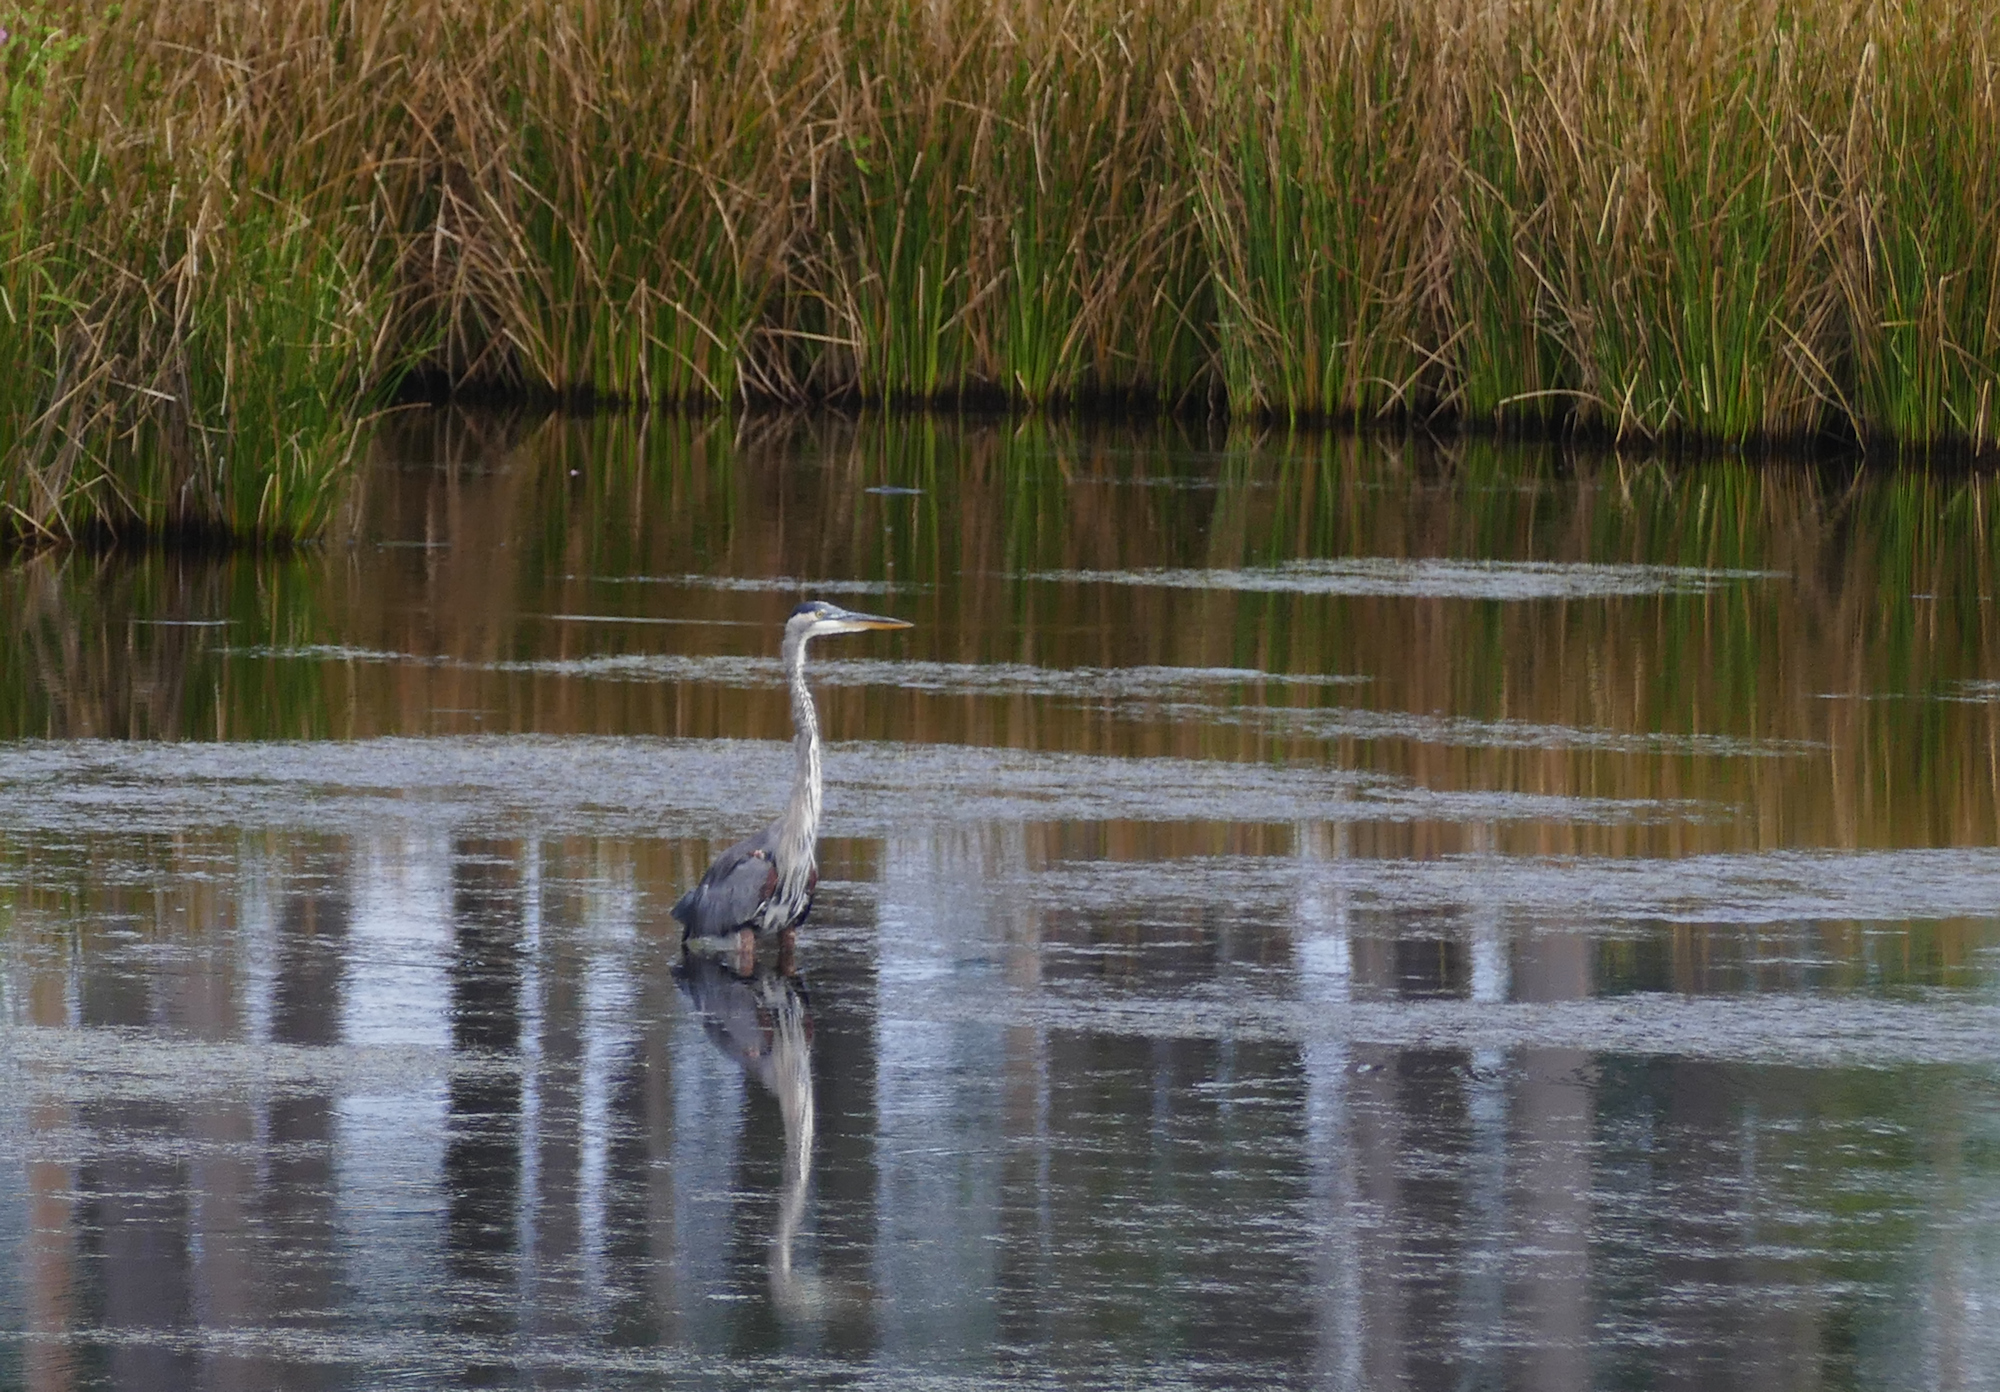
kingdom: Animalia
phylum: Chordata
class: Aves
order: Pelecaniformes
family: Ardeidae
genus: Ardea
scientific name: Ardea herodias
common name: Great blue heron
